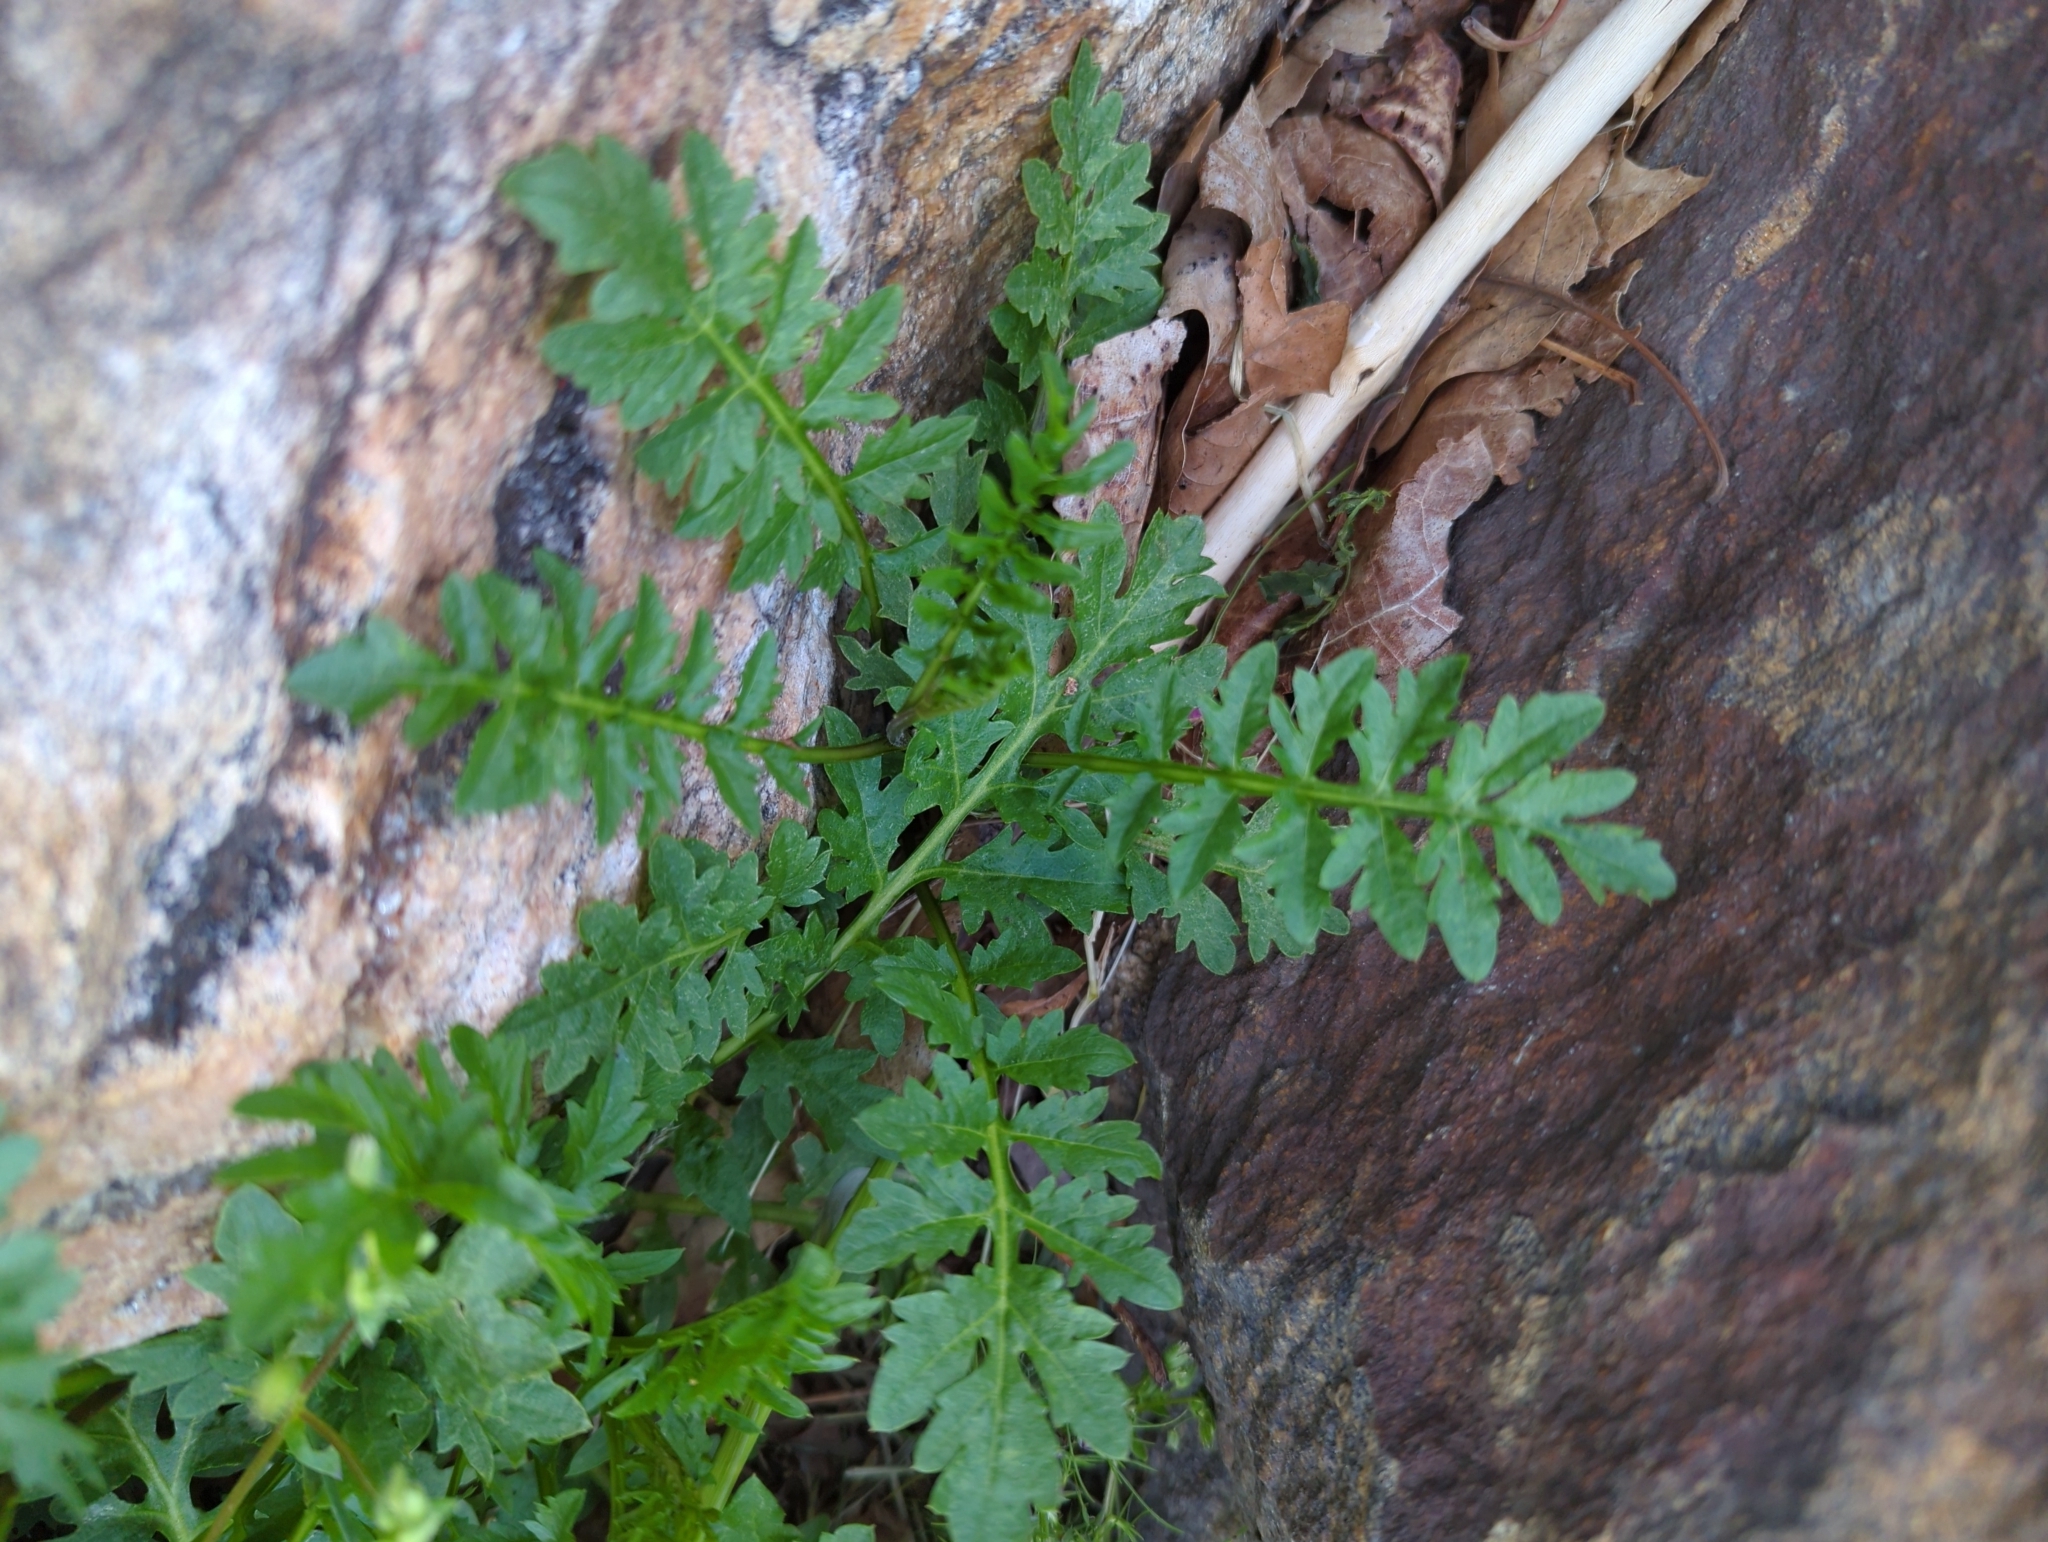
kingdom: Plantae
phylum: Tracheophyta
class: Magnoliopsida
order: Brassicales
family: Brassicaceae
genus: Cardamine
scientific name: Cardamine impatiens
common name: Narrow-leaved bitter-cress
